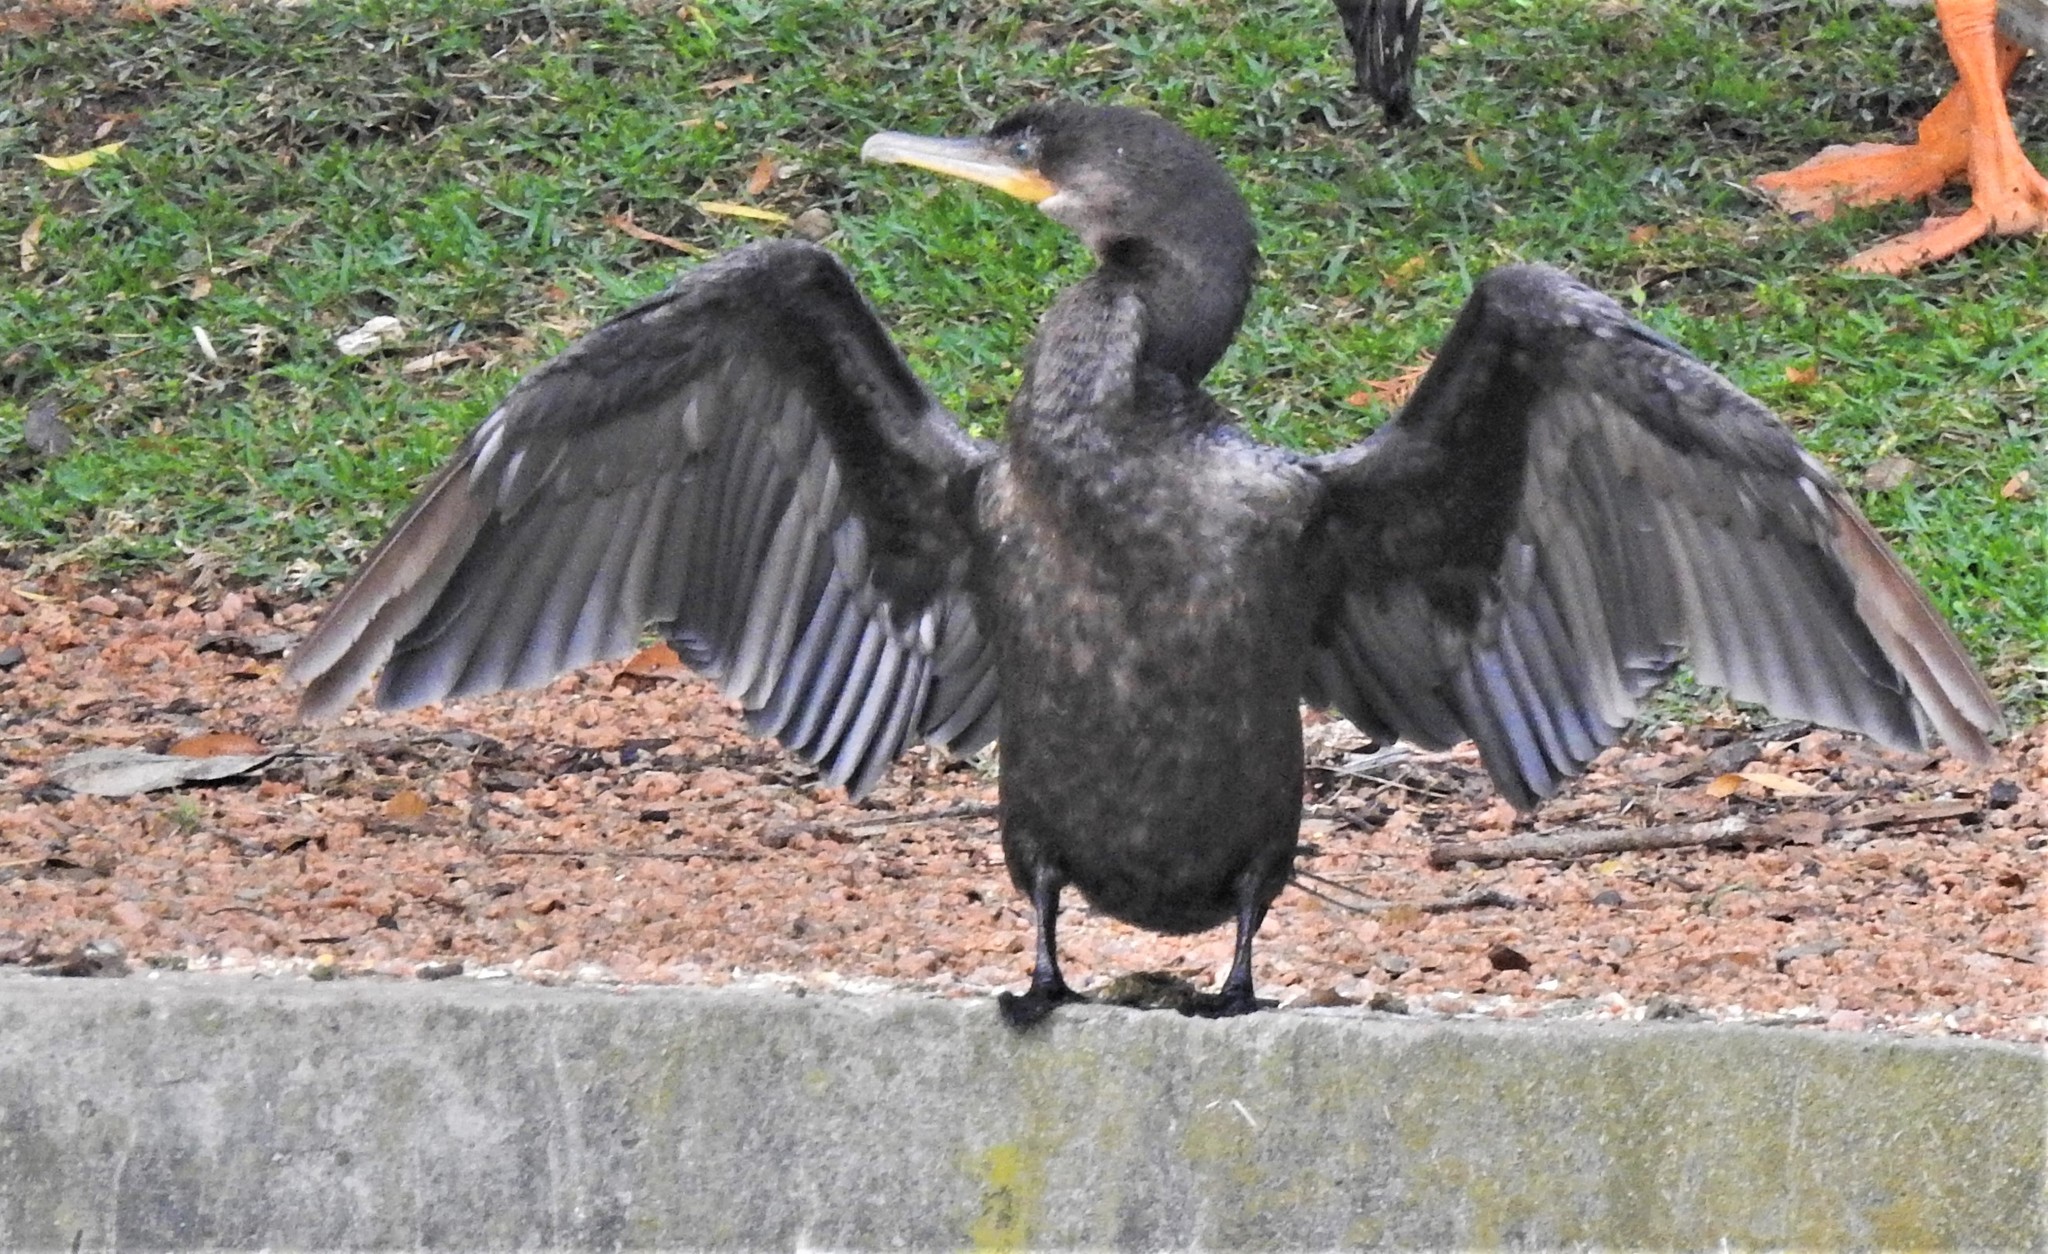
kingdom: Animalia
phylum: Chordata
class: Aves
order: Suliformes
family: Phalacrocoracidae
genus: Phalacrocorax
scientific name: Phalacrocorax brasilianus
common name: Neotropic cormorant
